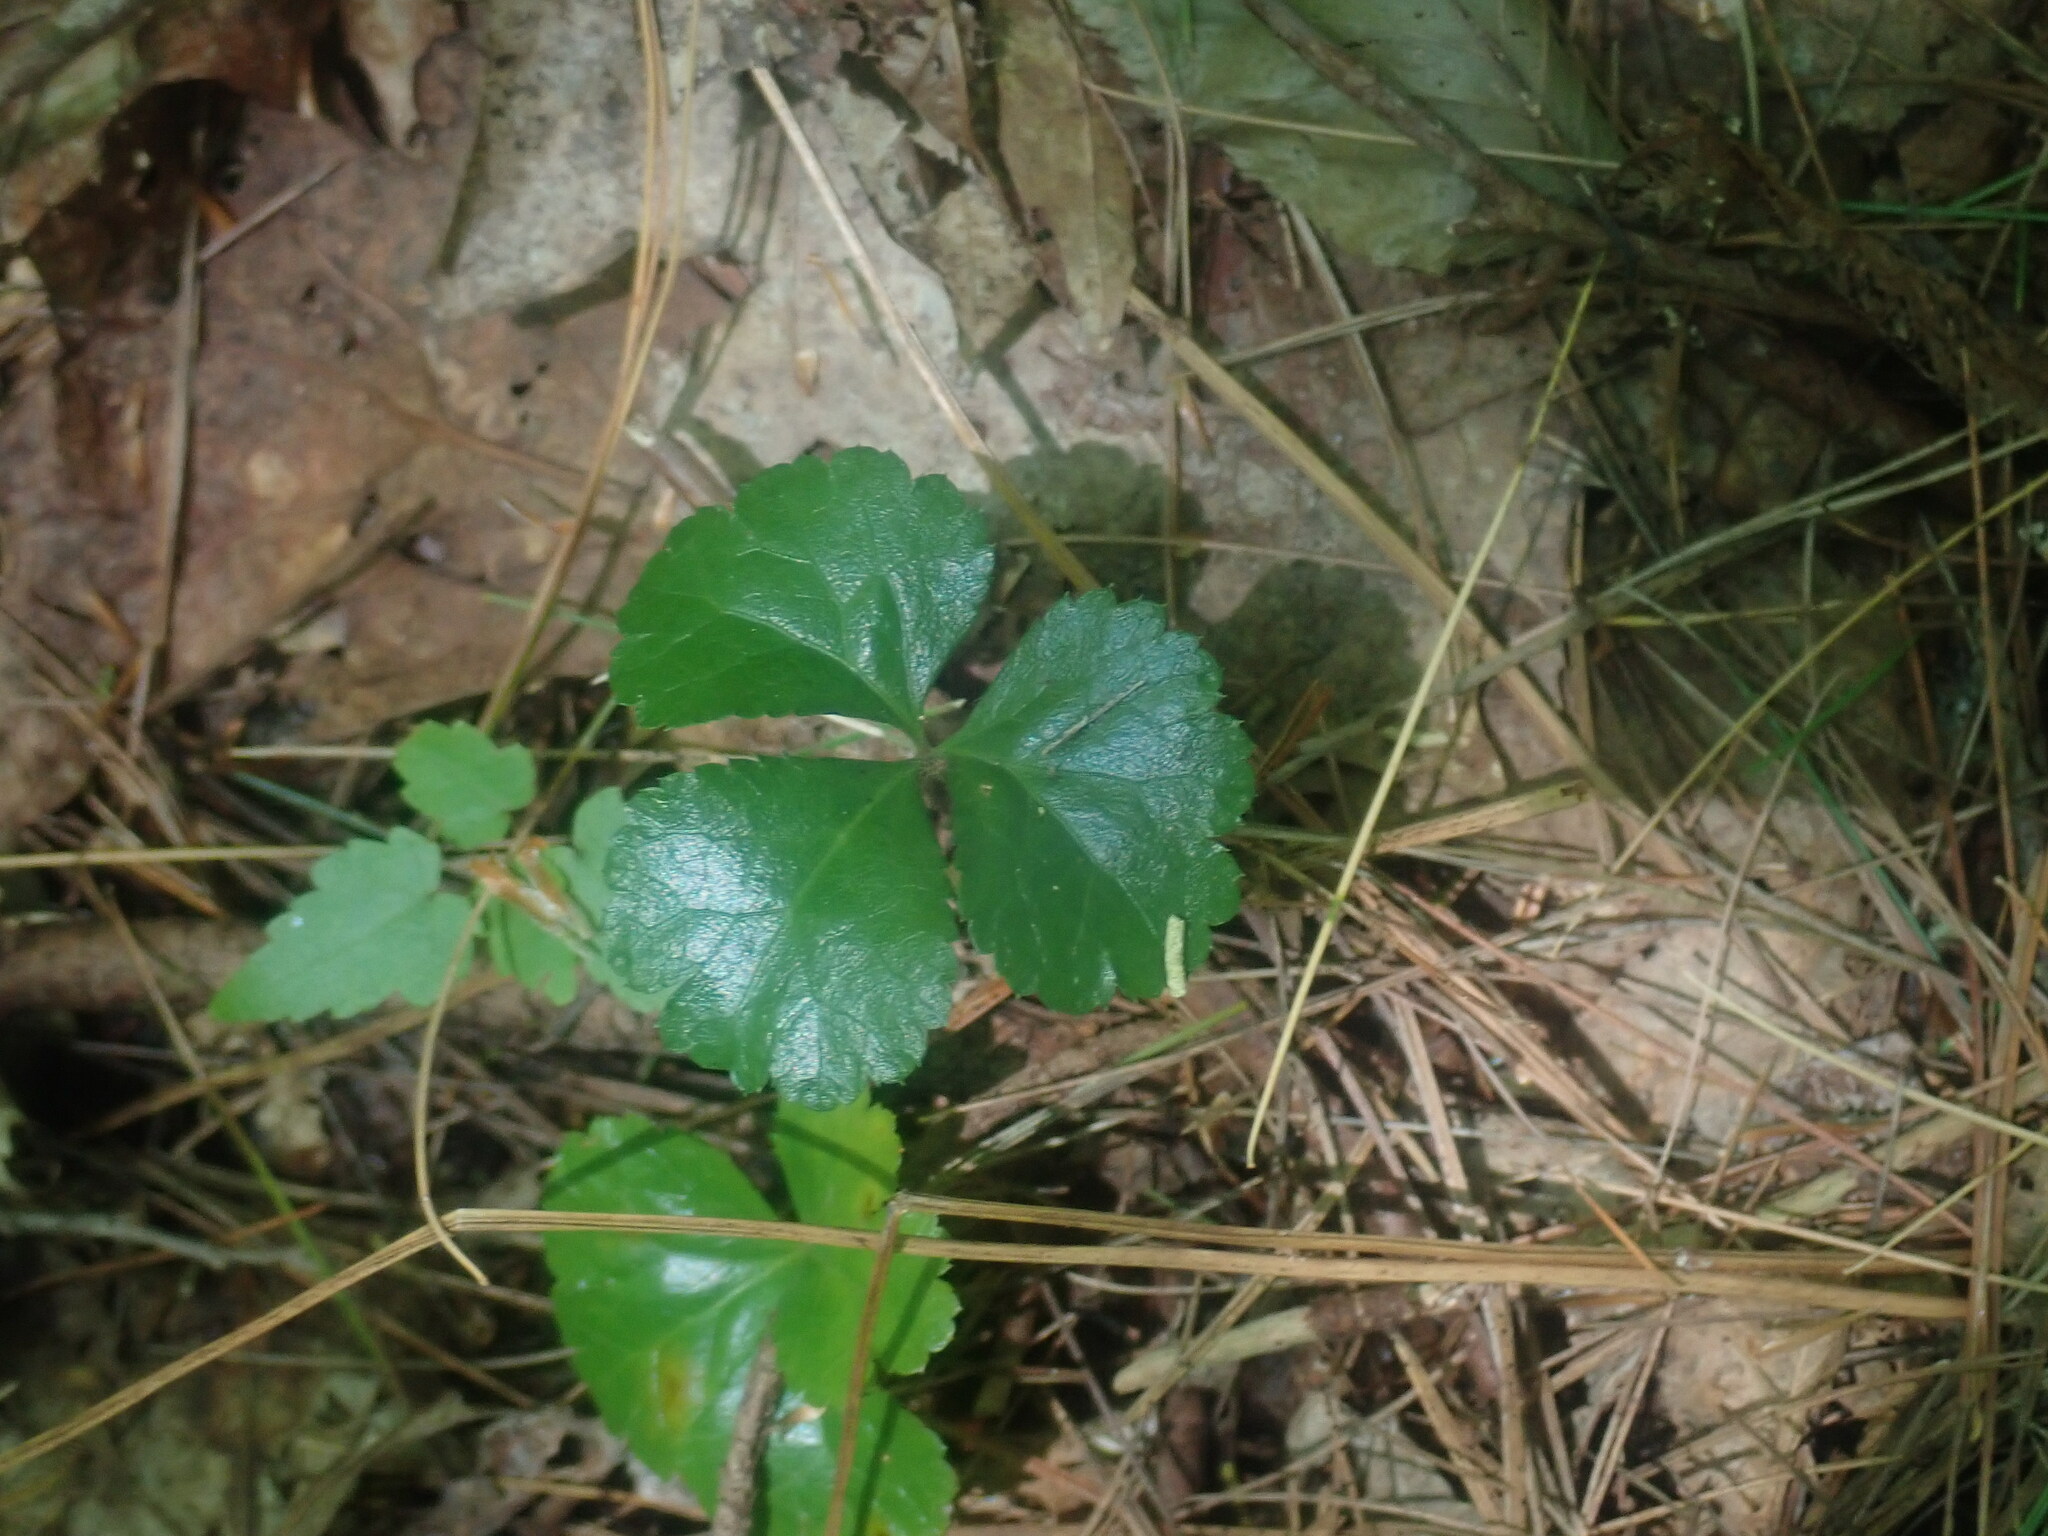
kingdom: Plantae
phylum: Tracheophyta
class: Magnoliopsida
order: Ranunculales
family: Ranunculaceae
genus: Coptis
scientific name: Coptis trifolia
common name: Canker-root
